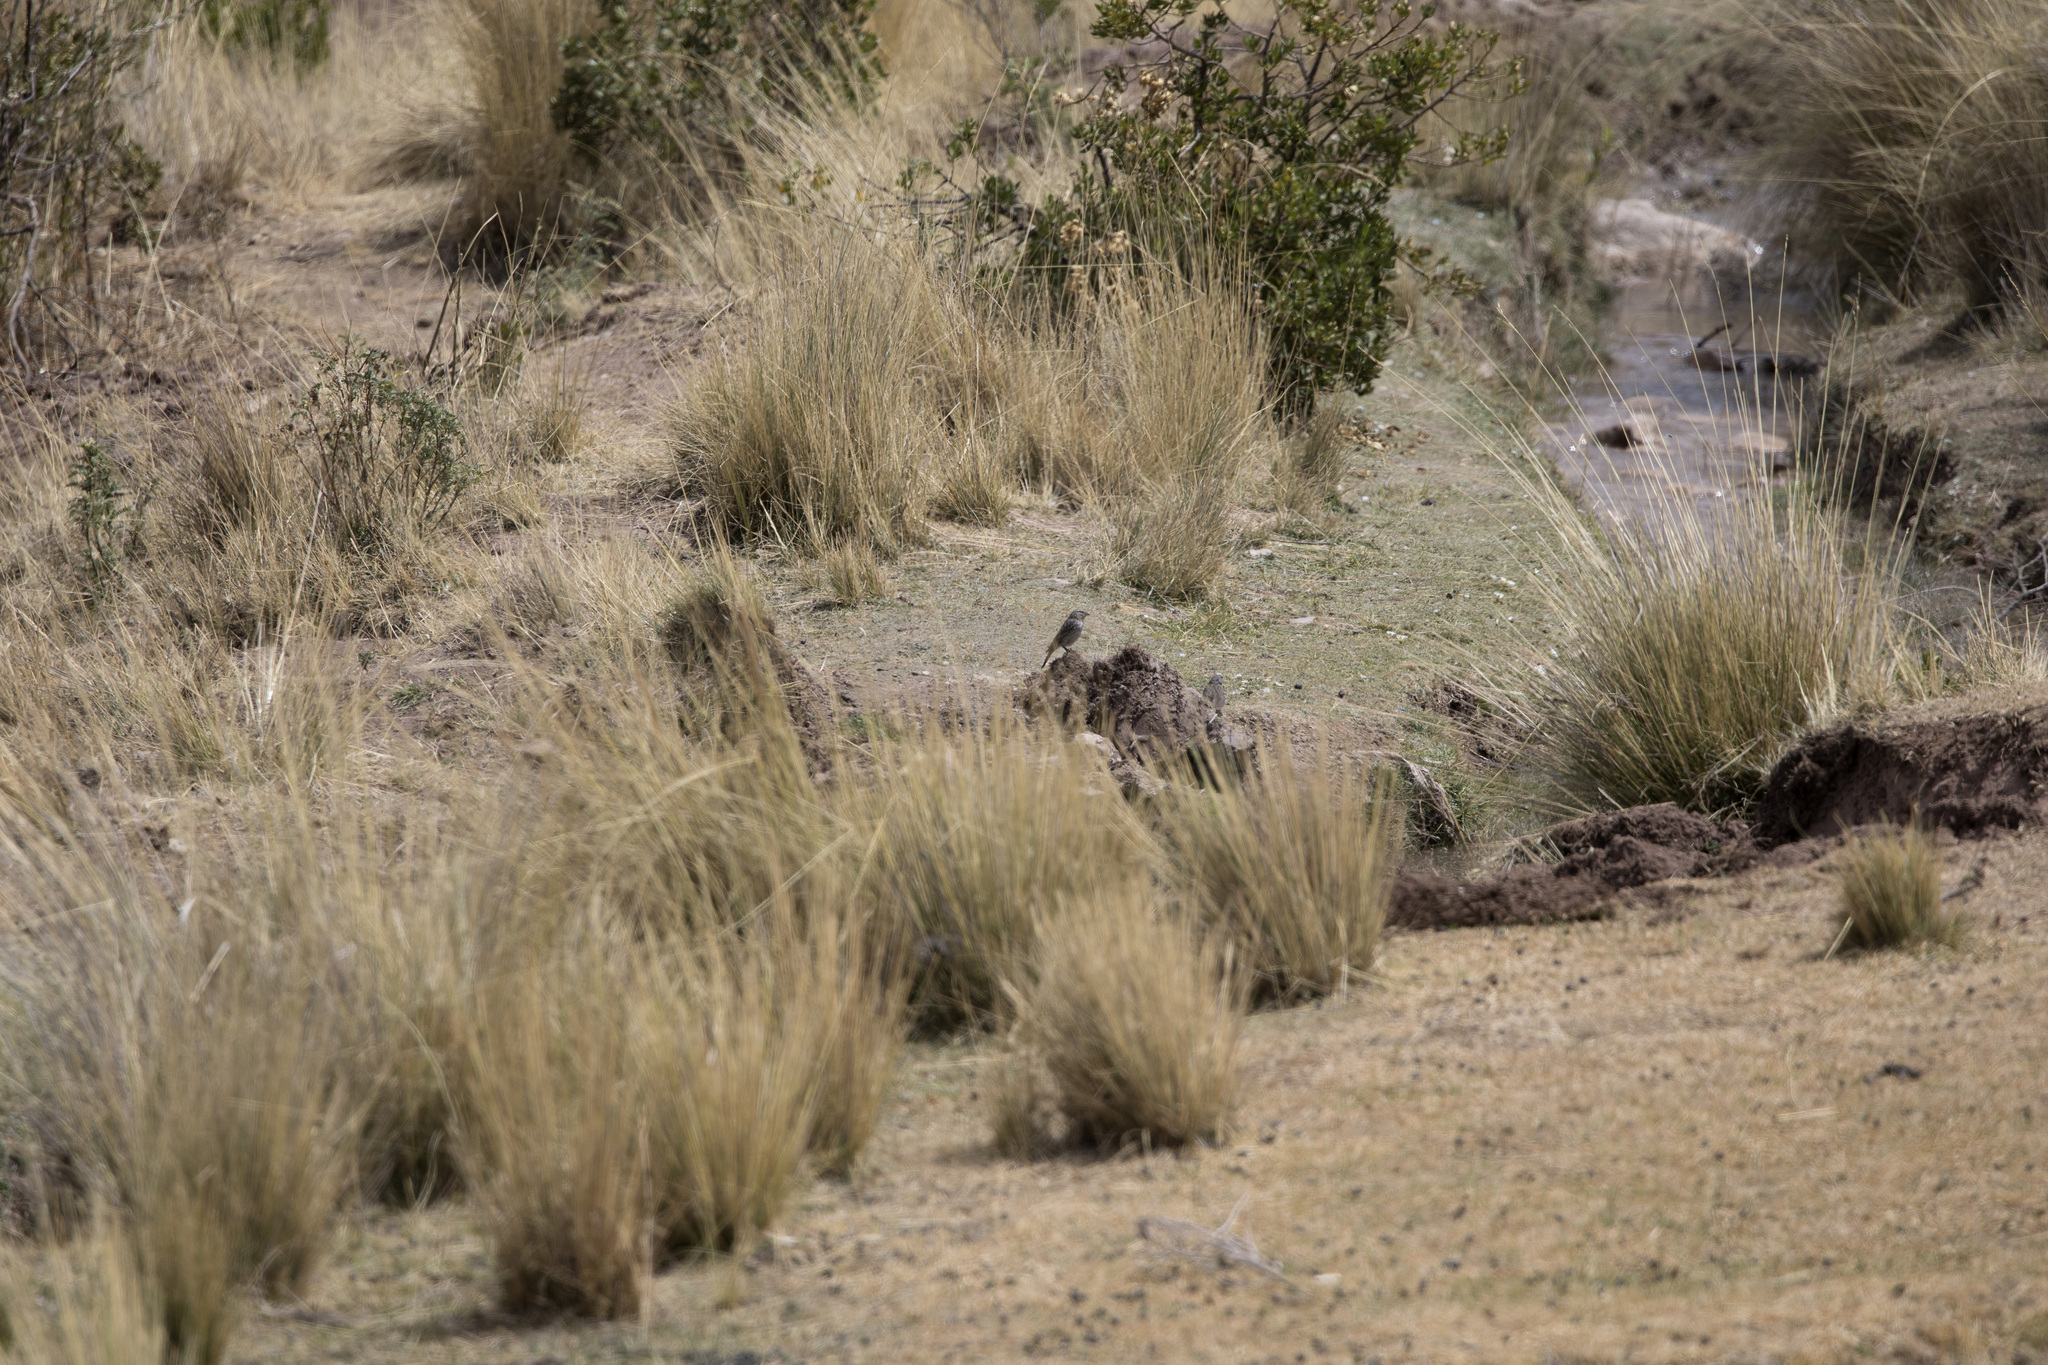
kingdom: Animalia
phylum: Chordata
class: Aves
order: Passeriformes
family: Thraupidae
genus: Geospizopsis
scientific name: Geospizopsis plebejus
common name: Ash-breasted sierra-finch
